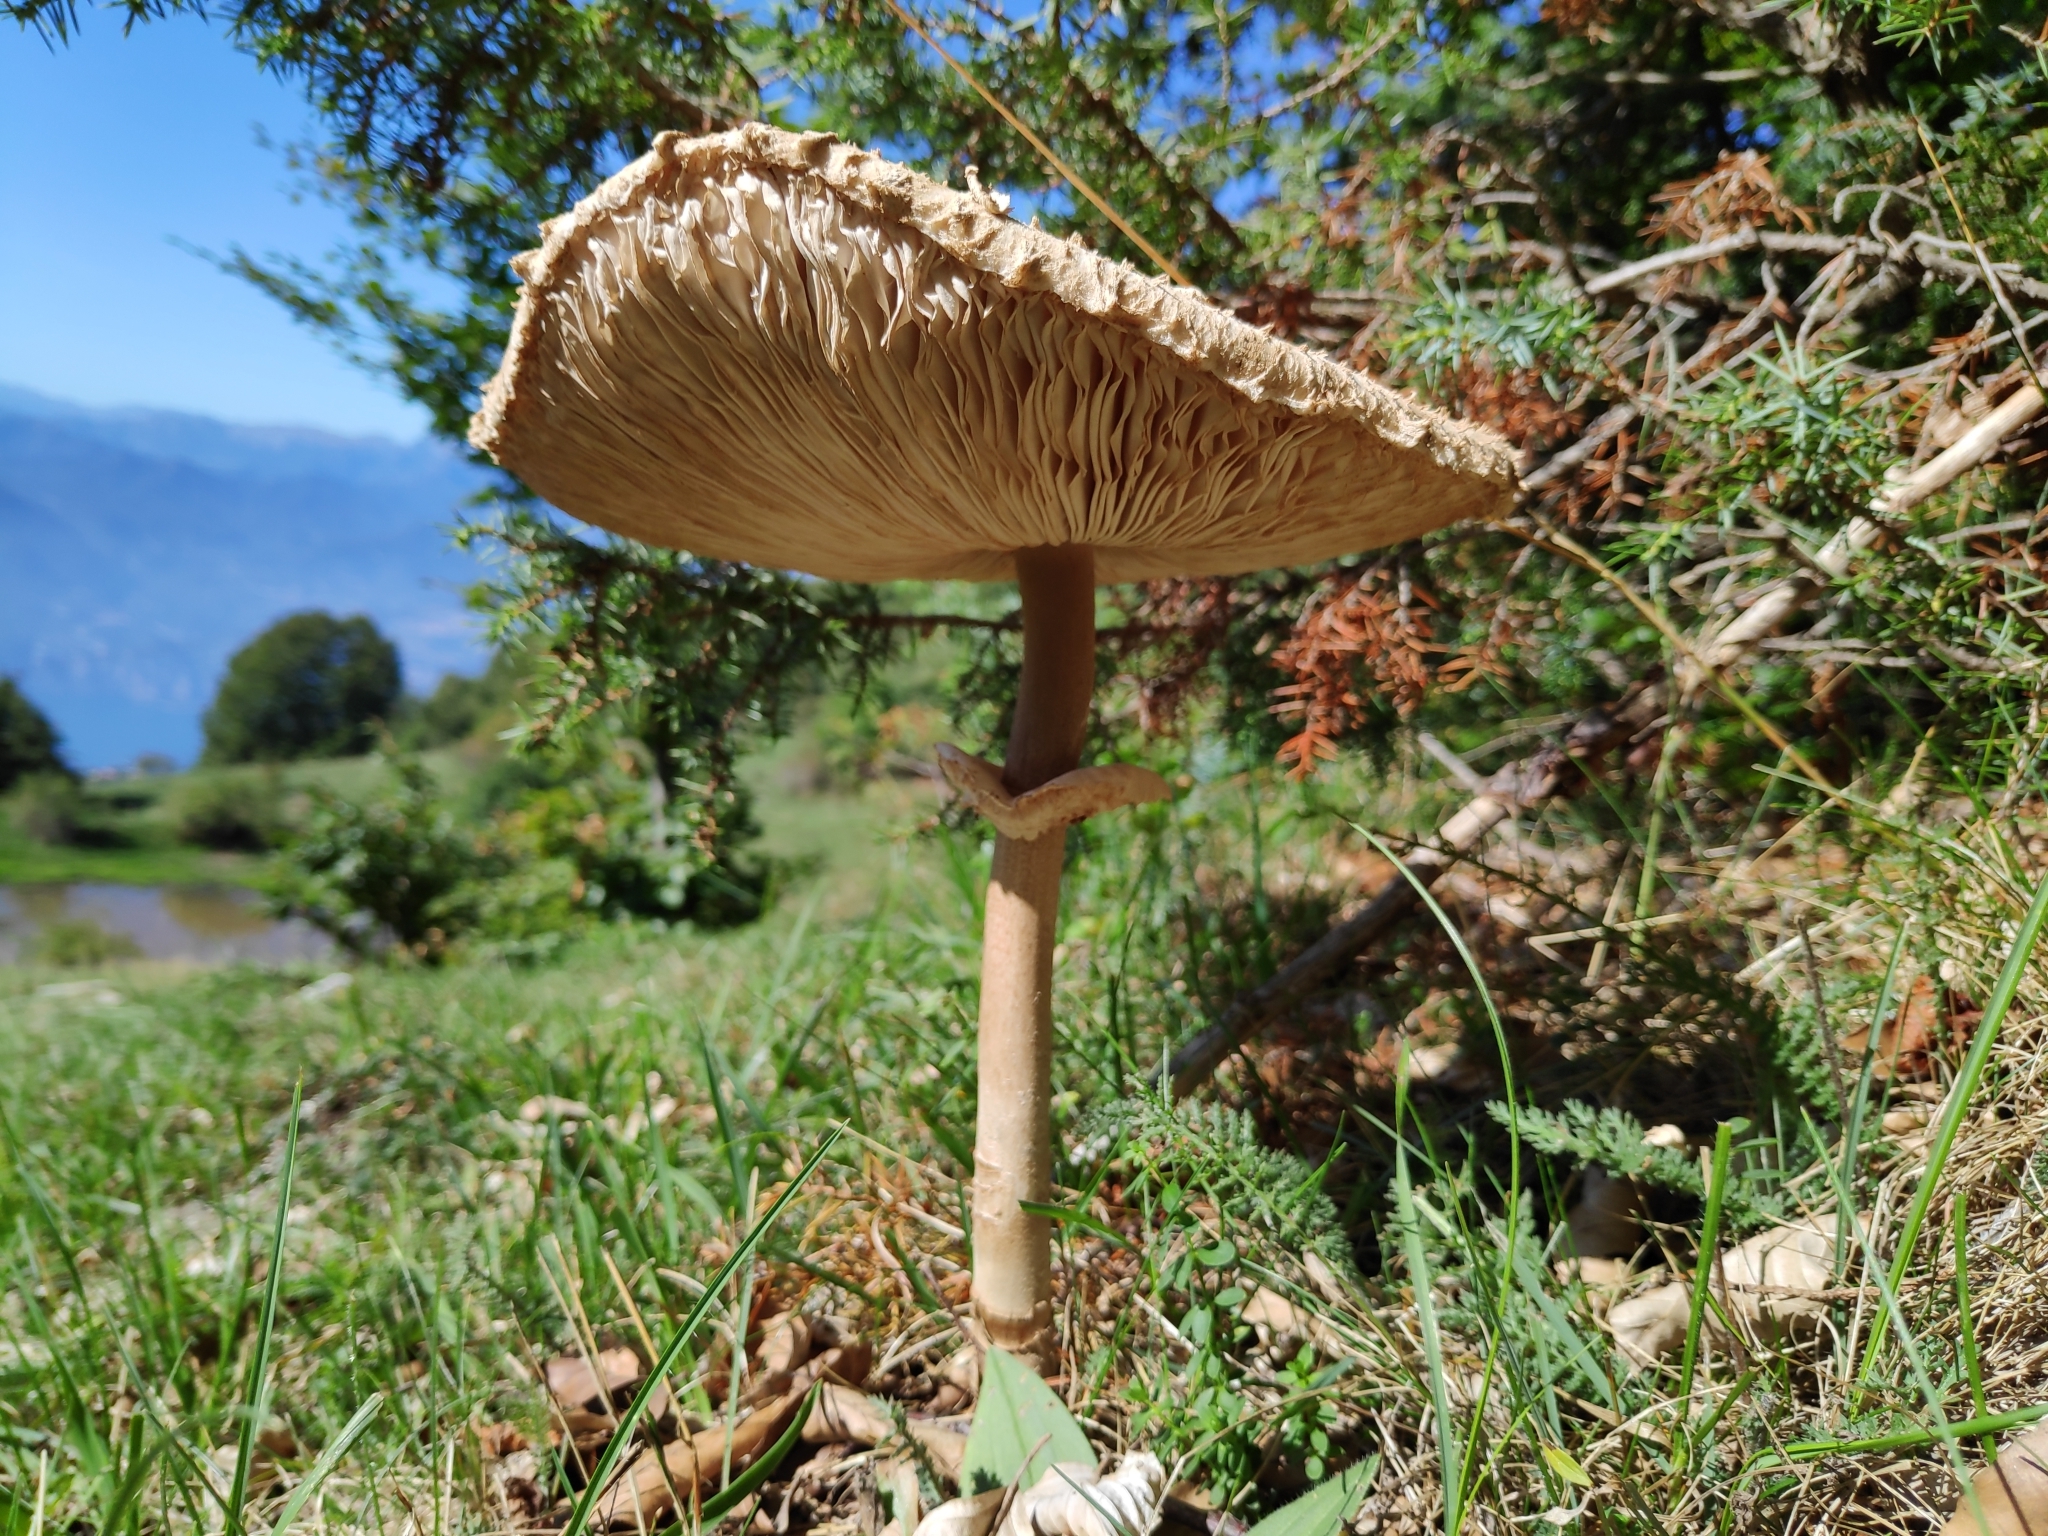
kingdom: Fungi
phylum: Basidiomycota
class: Agaricomycetes
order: Agaricales
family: Agaricaceae
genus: Macrolepiota
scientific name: Macrolepiota procera
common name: Parasol
